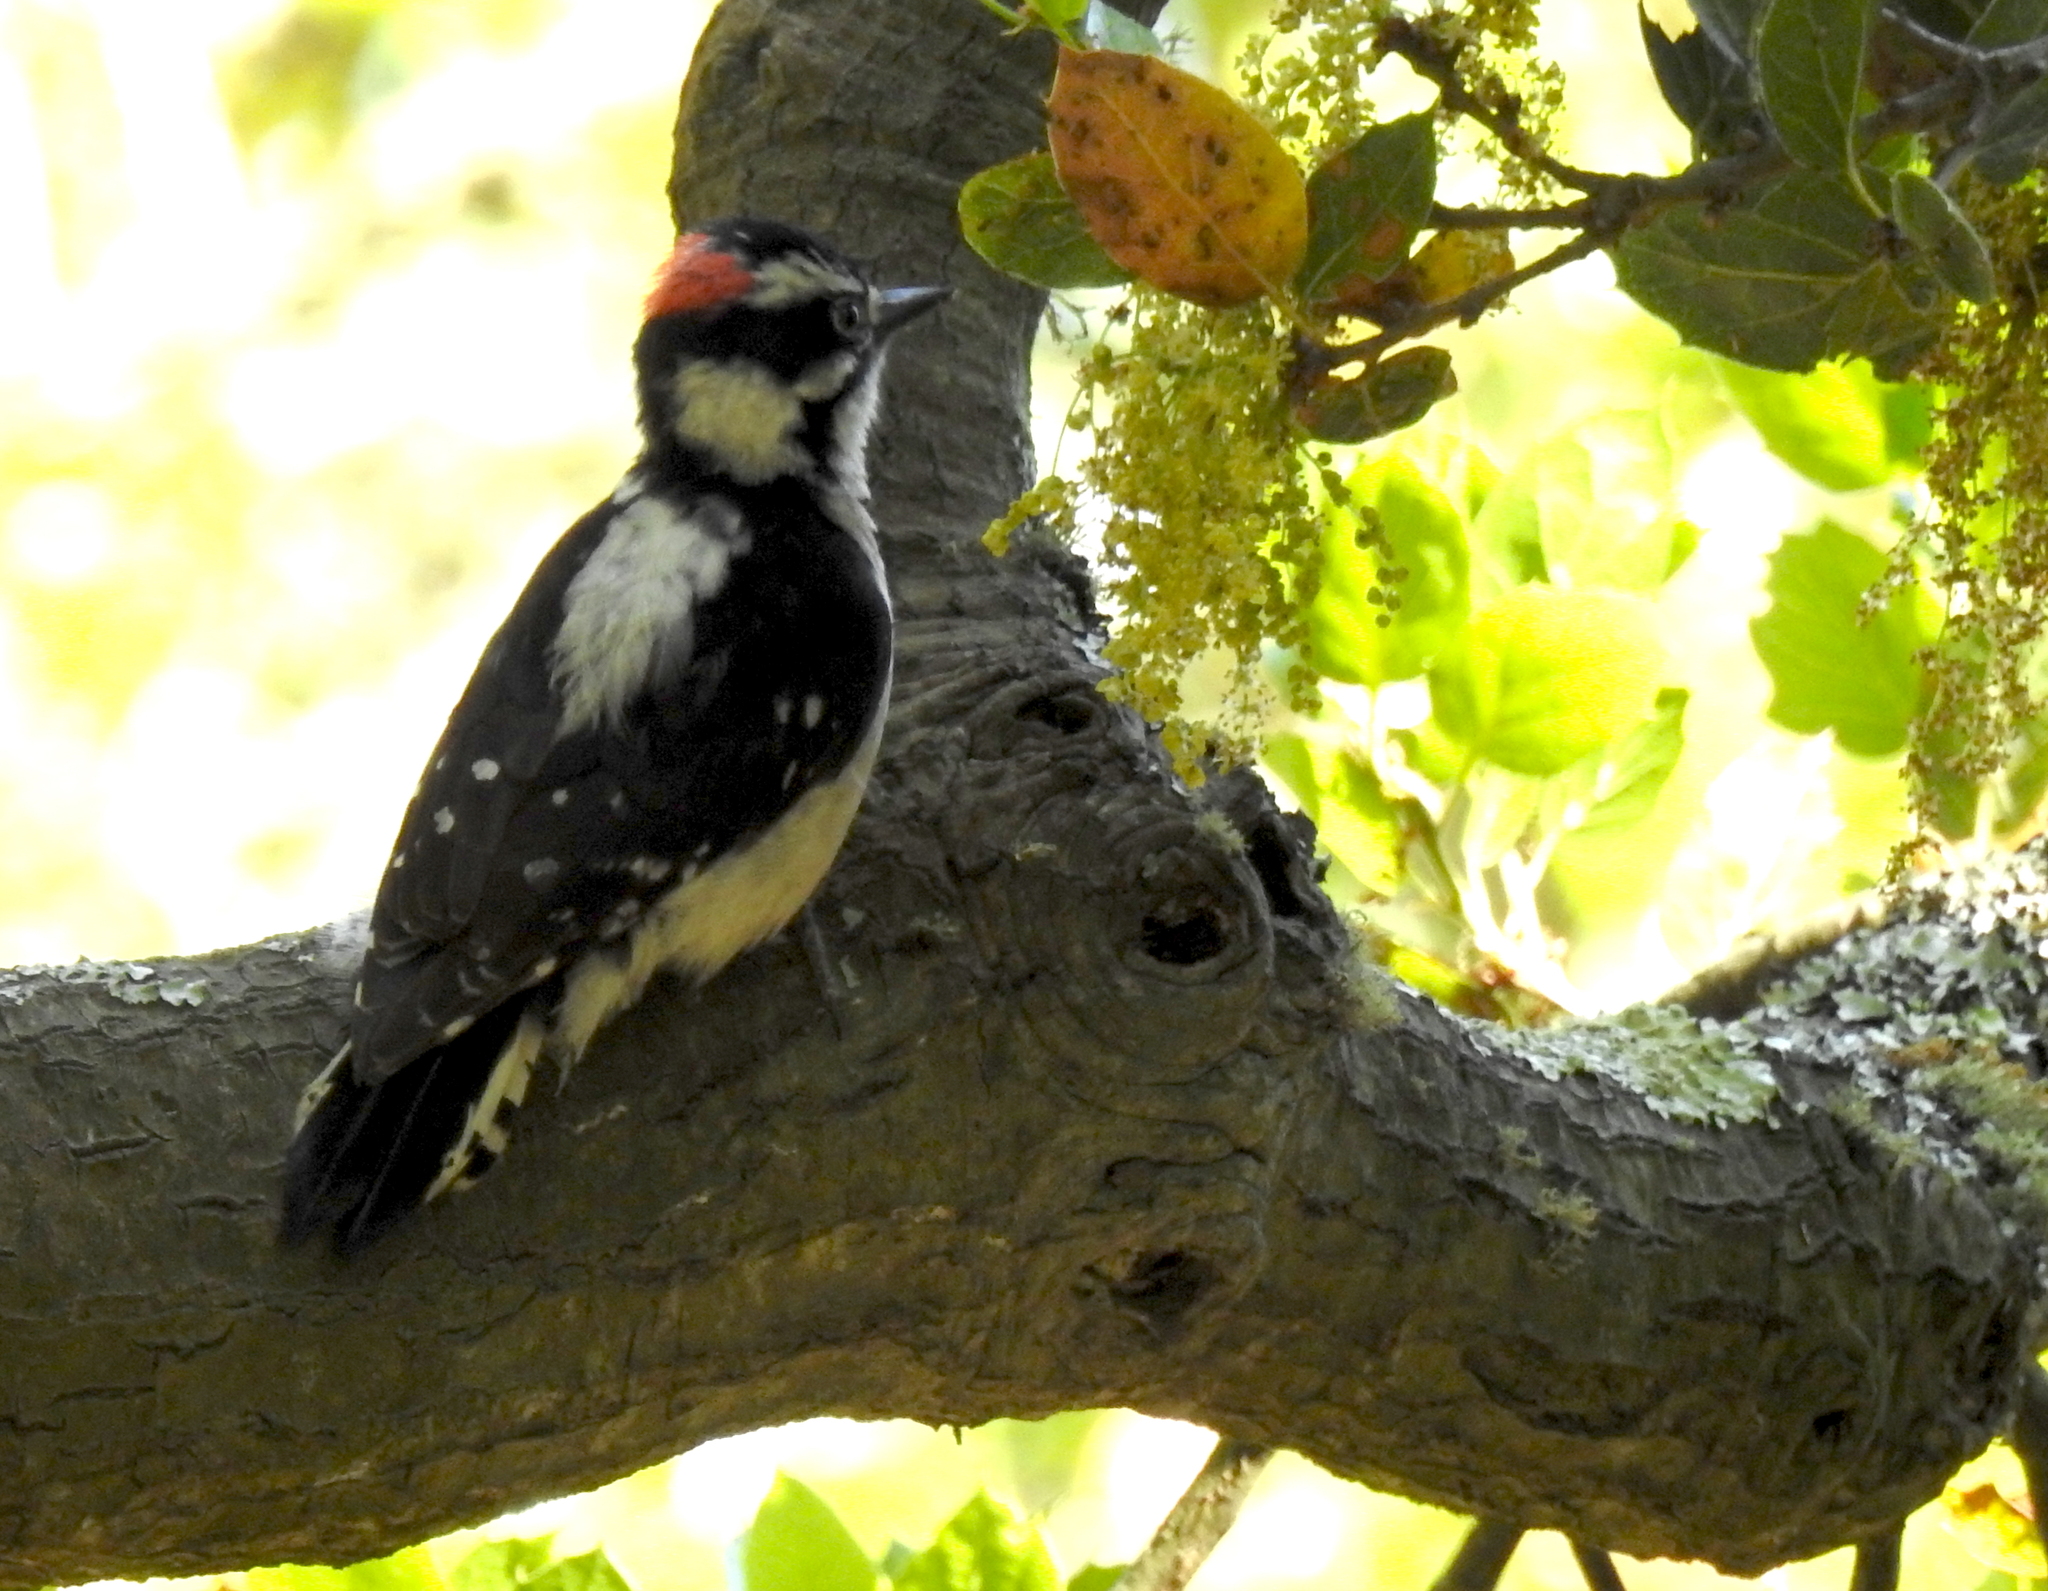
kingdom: Animalia
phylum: Chordata
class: Aves
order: Piciformes
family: Picidae
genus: Dryobates
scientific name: Dryobates pubescens
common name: Downy woodpecker
